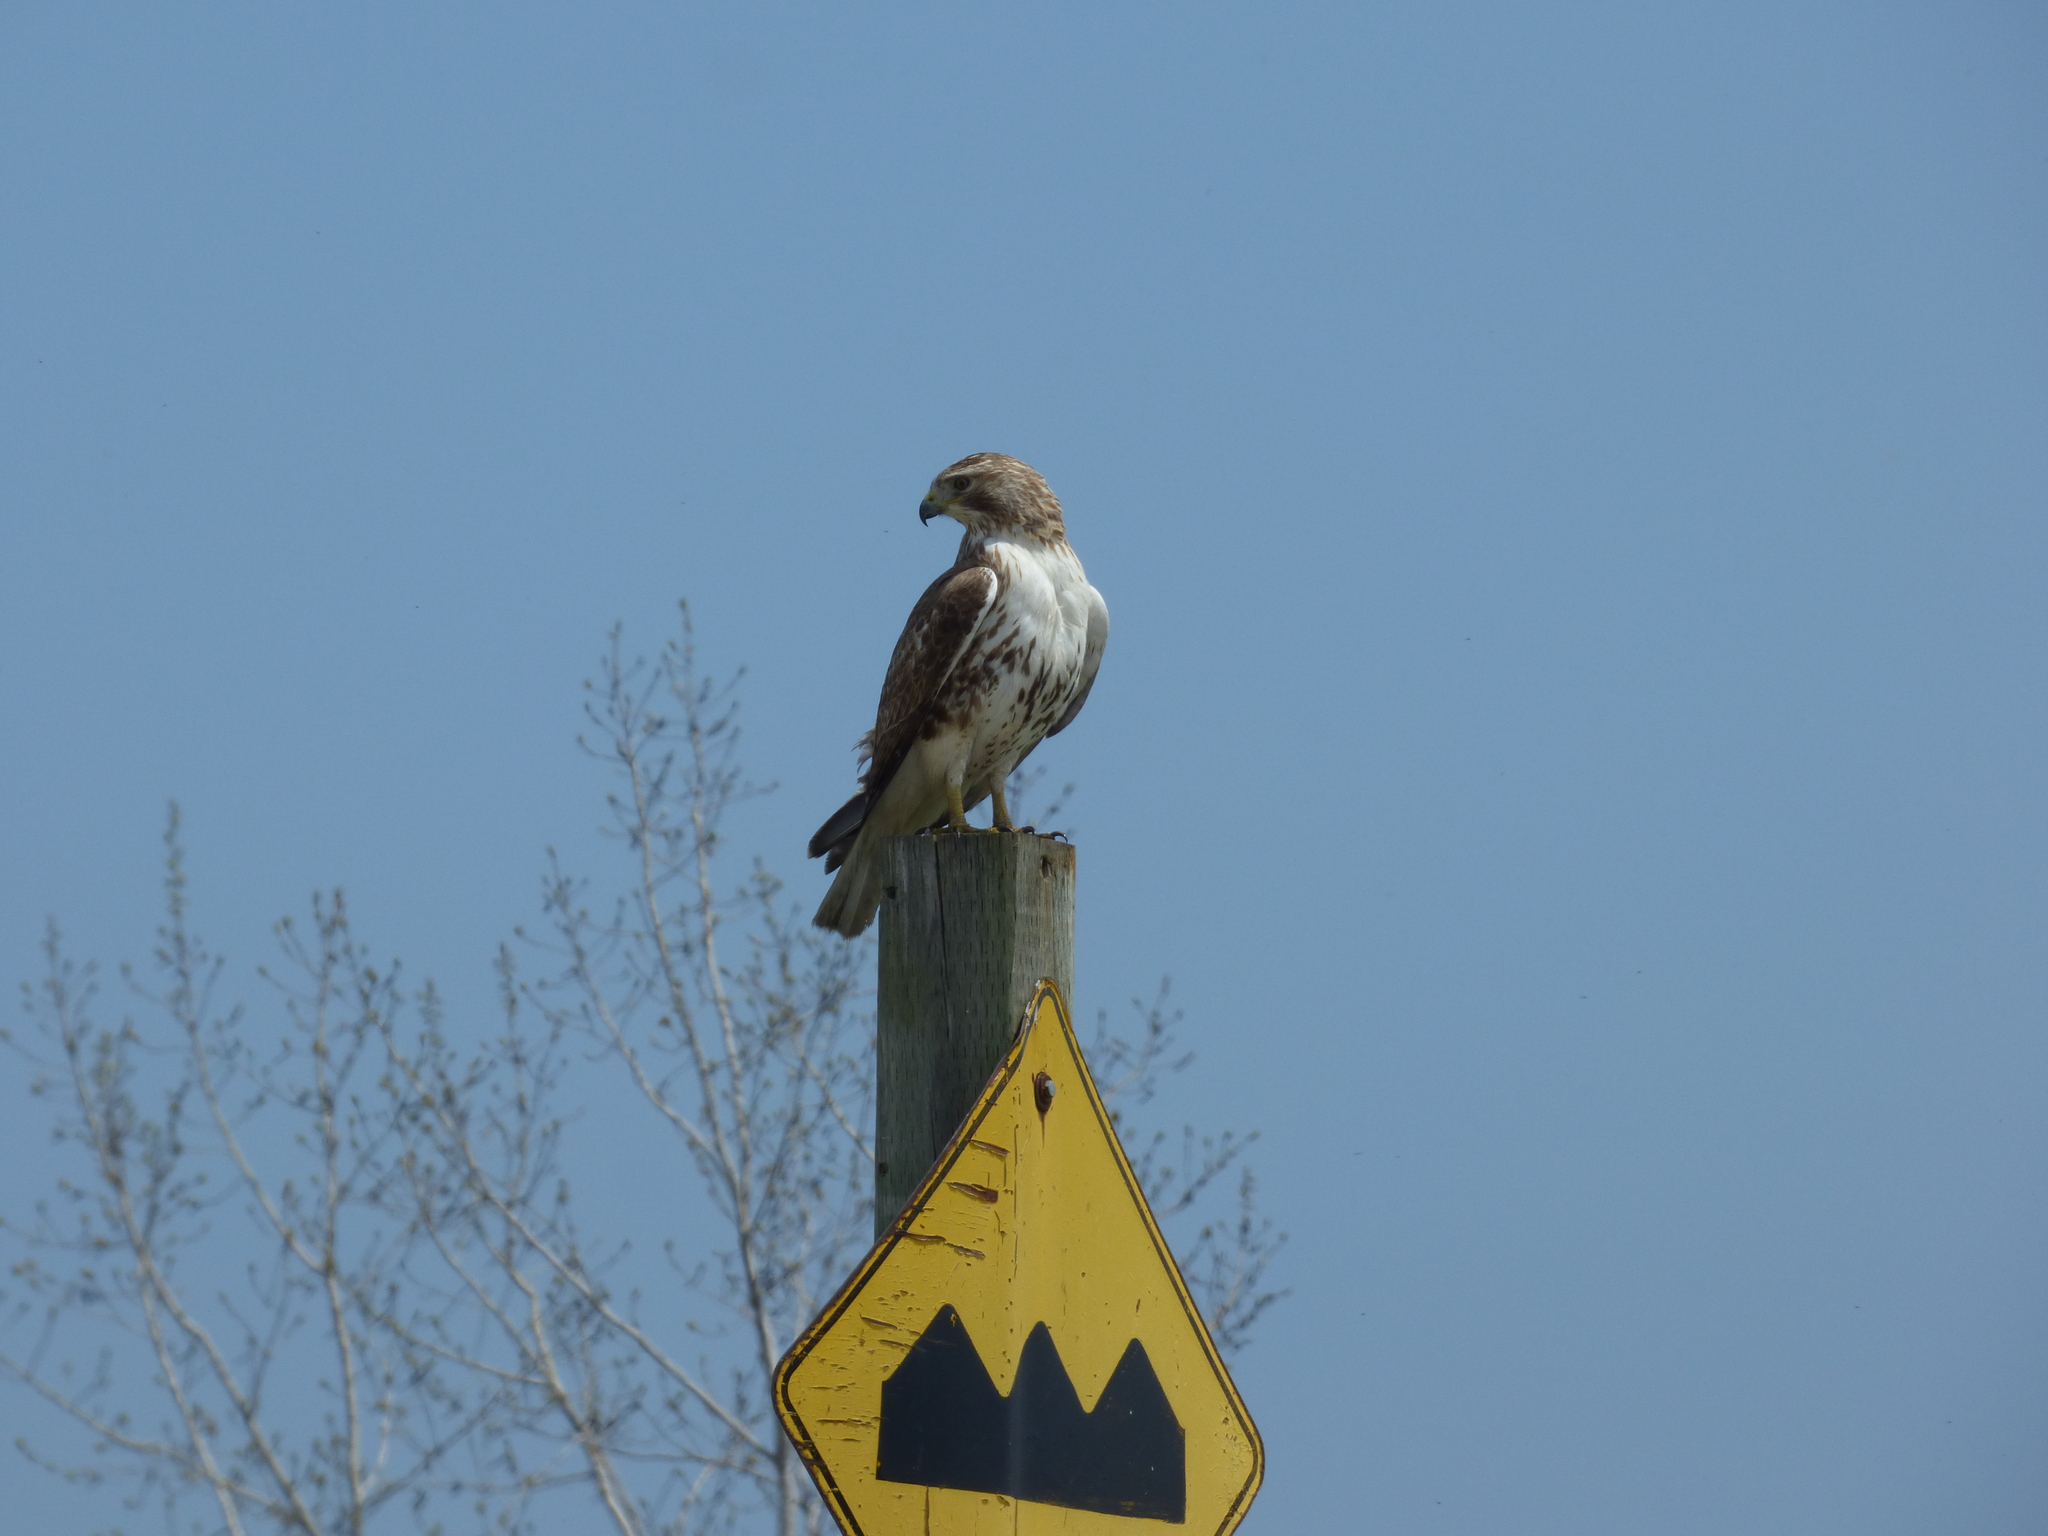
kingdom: Animalia
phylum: Chordata
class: Aves
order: Accipitriformes
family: Accipitridae
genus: Buteo
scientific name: Buteo jamaicensis
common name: Red-tailed hawk
